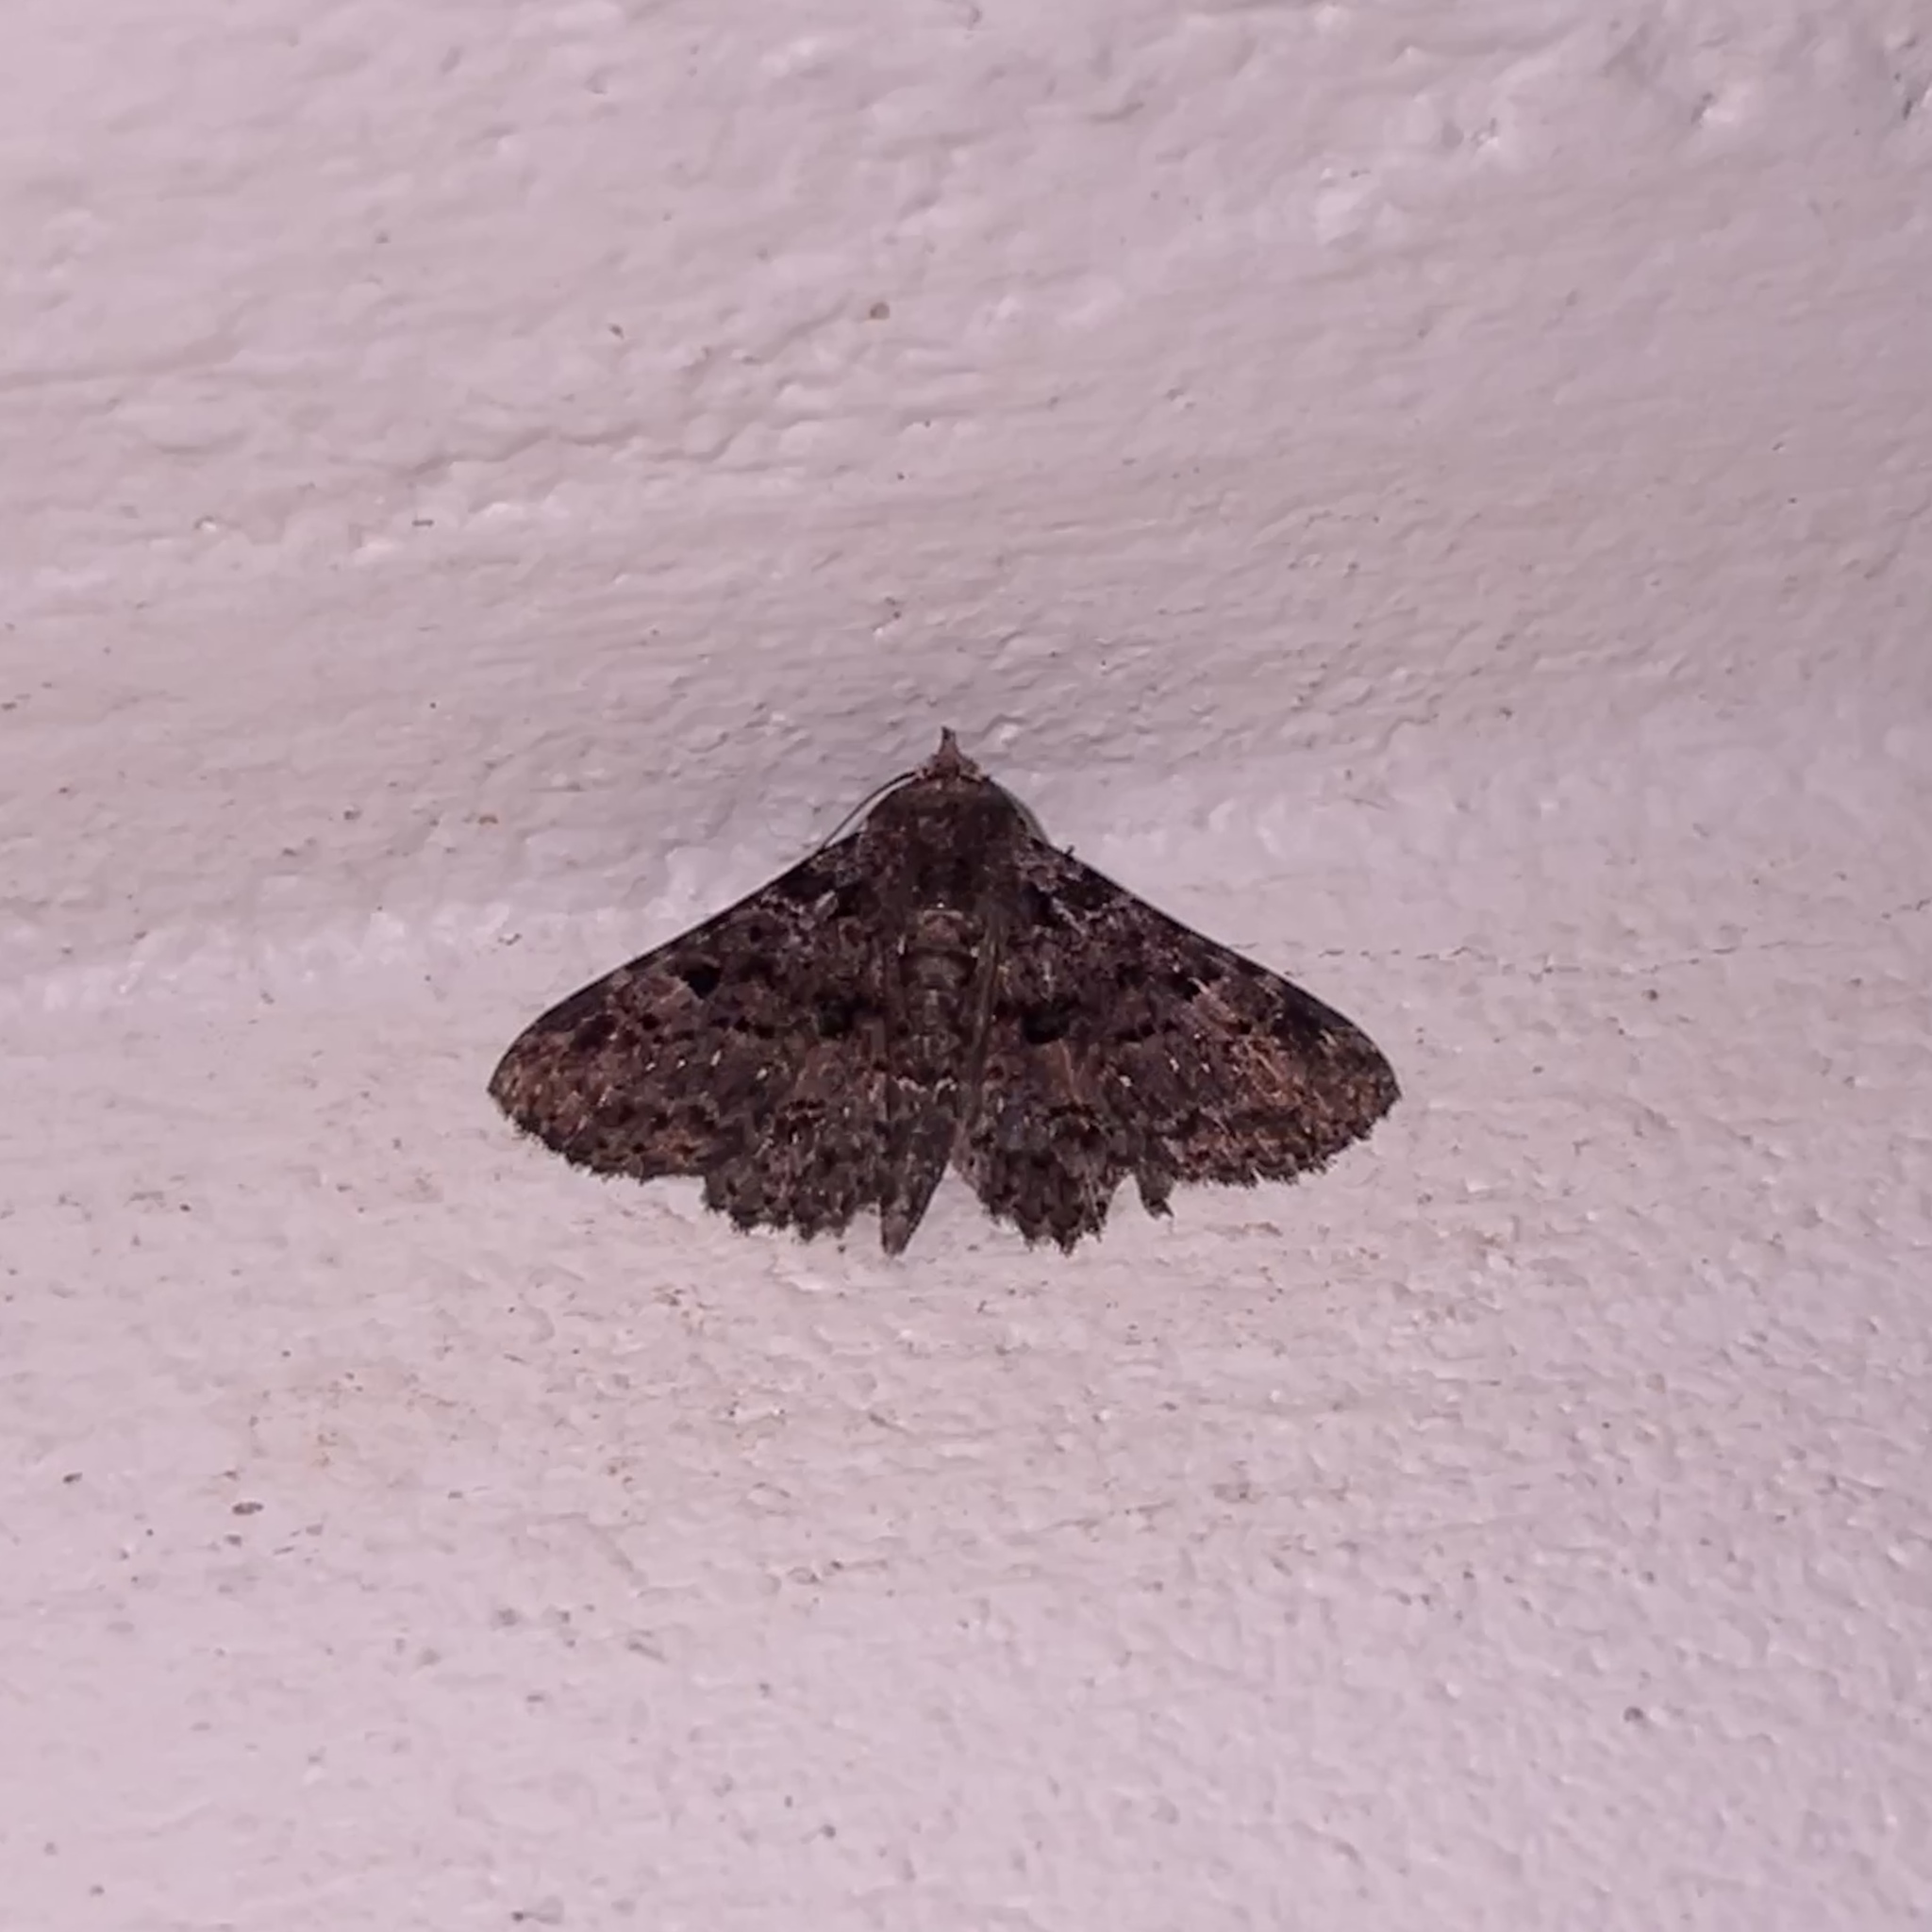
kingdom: Animalia
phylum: Arthropoda
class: Insecta
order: Lepidoptera
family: Erebidae
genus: Metalectra
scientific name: Metalectra praecisalis
